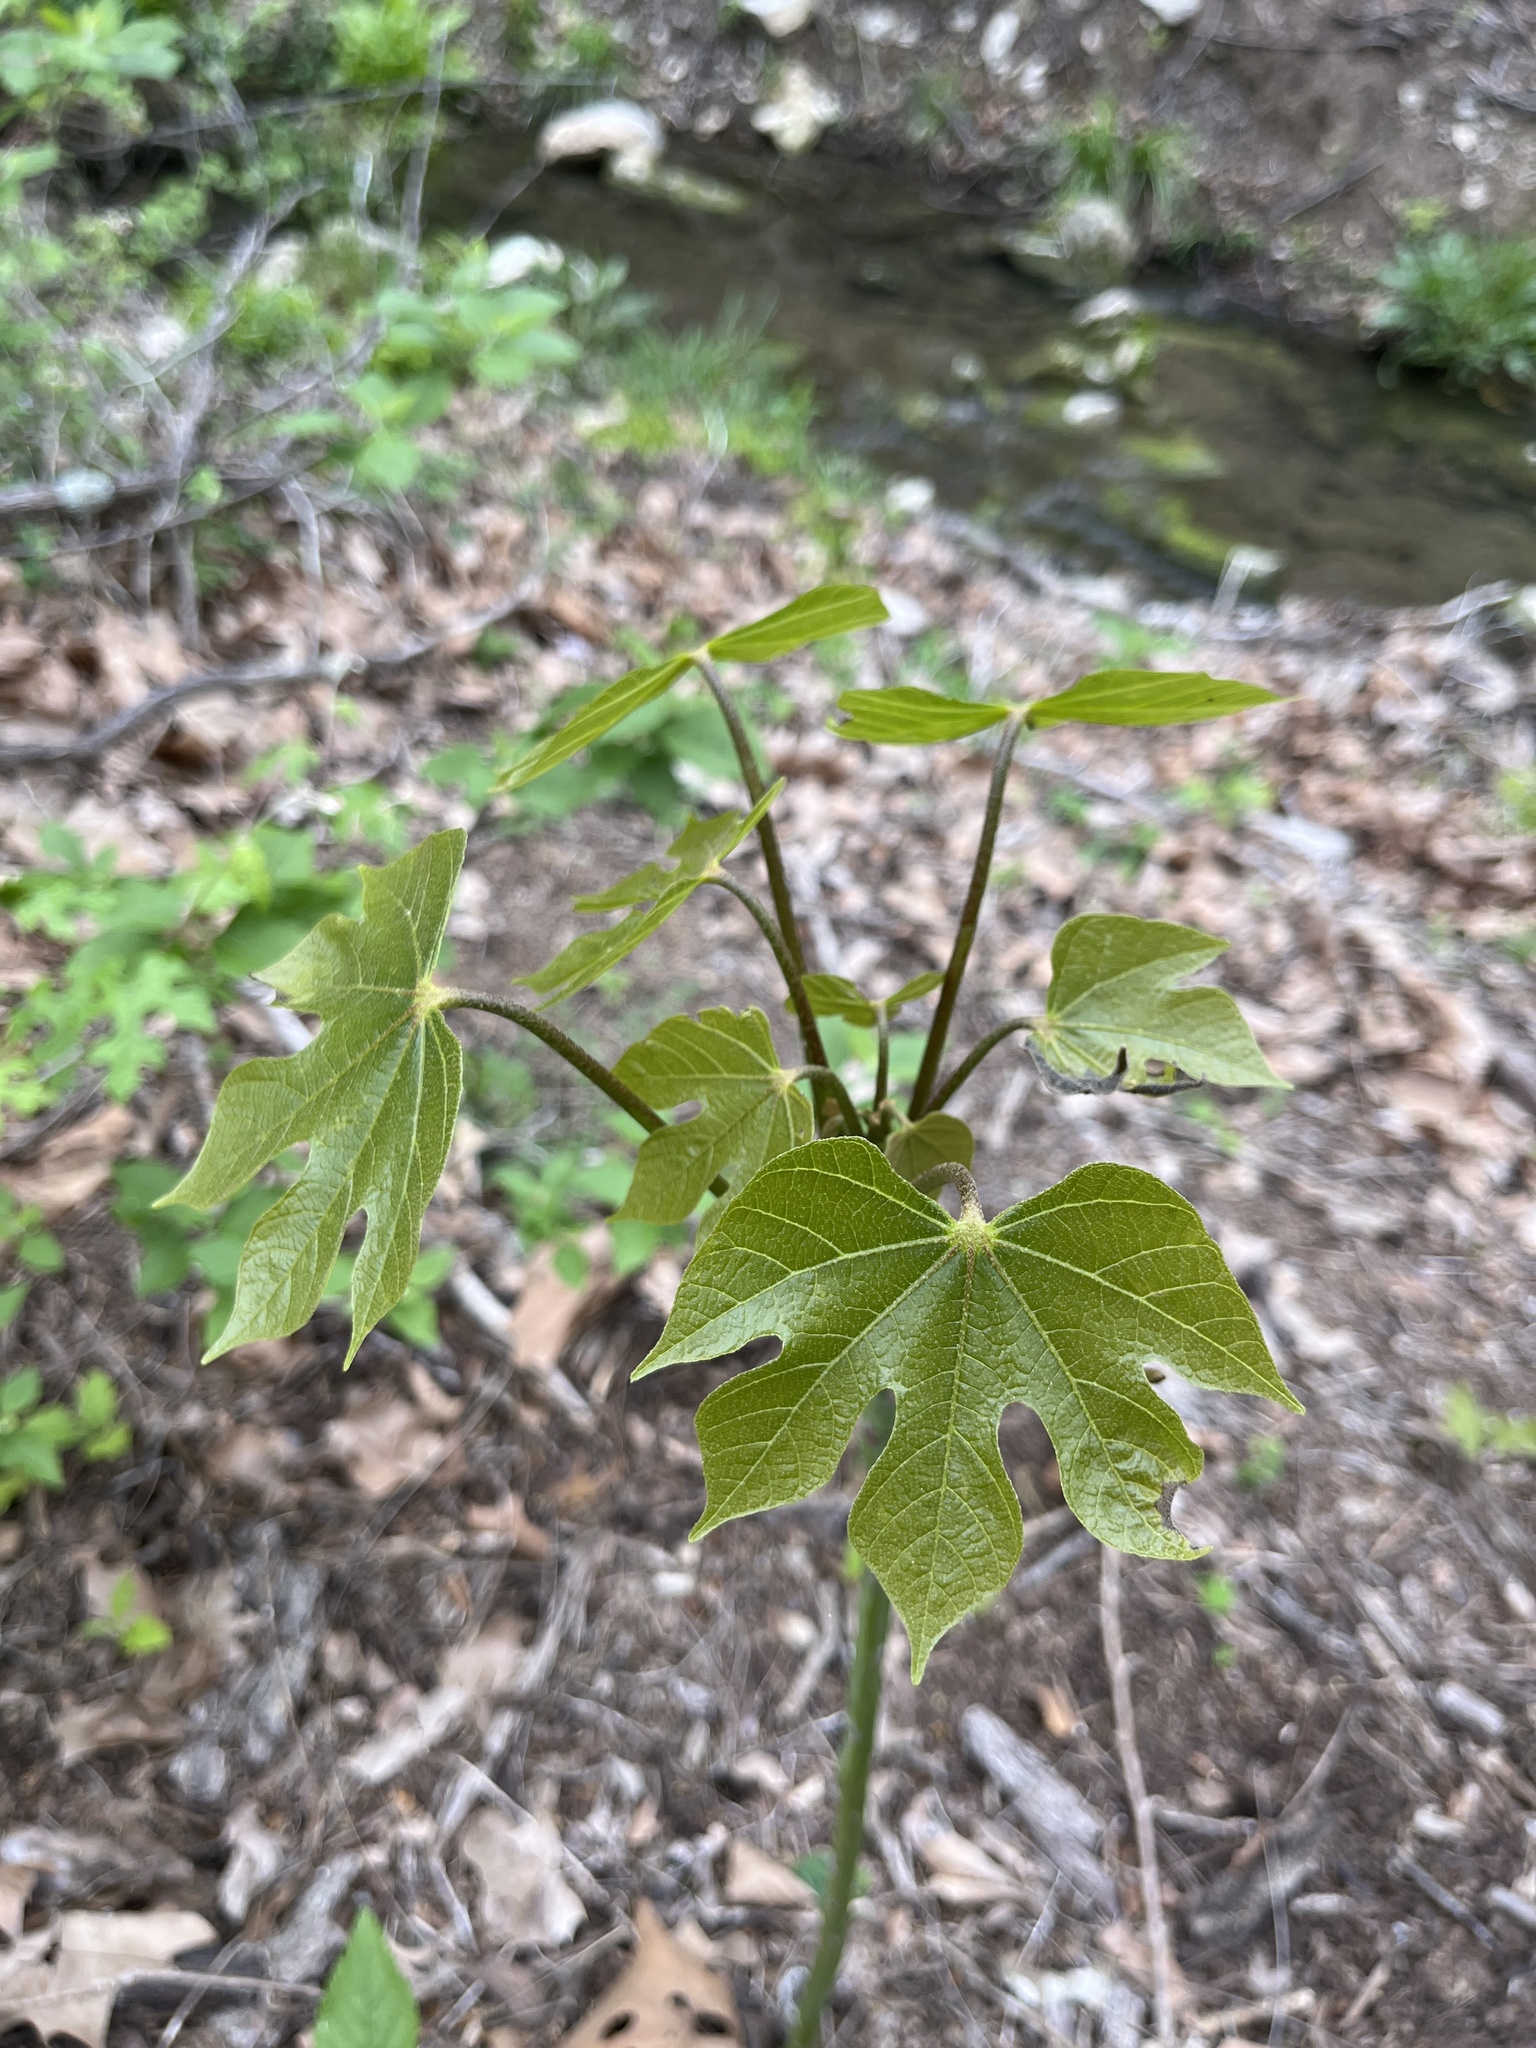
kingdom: Plantae
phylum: Tracheophyta
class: Magnoliopsida
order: Malvales
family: Malvaceae
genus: Firmiana
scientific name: Firmiana simplex
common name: Chinese parasoltree
